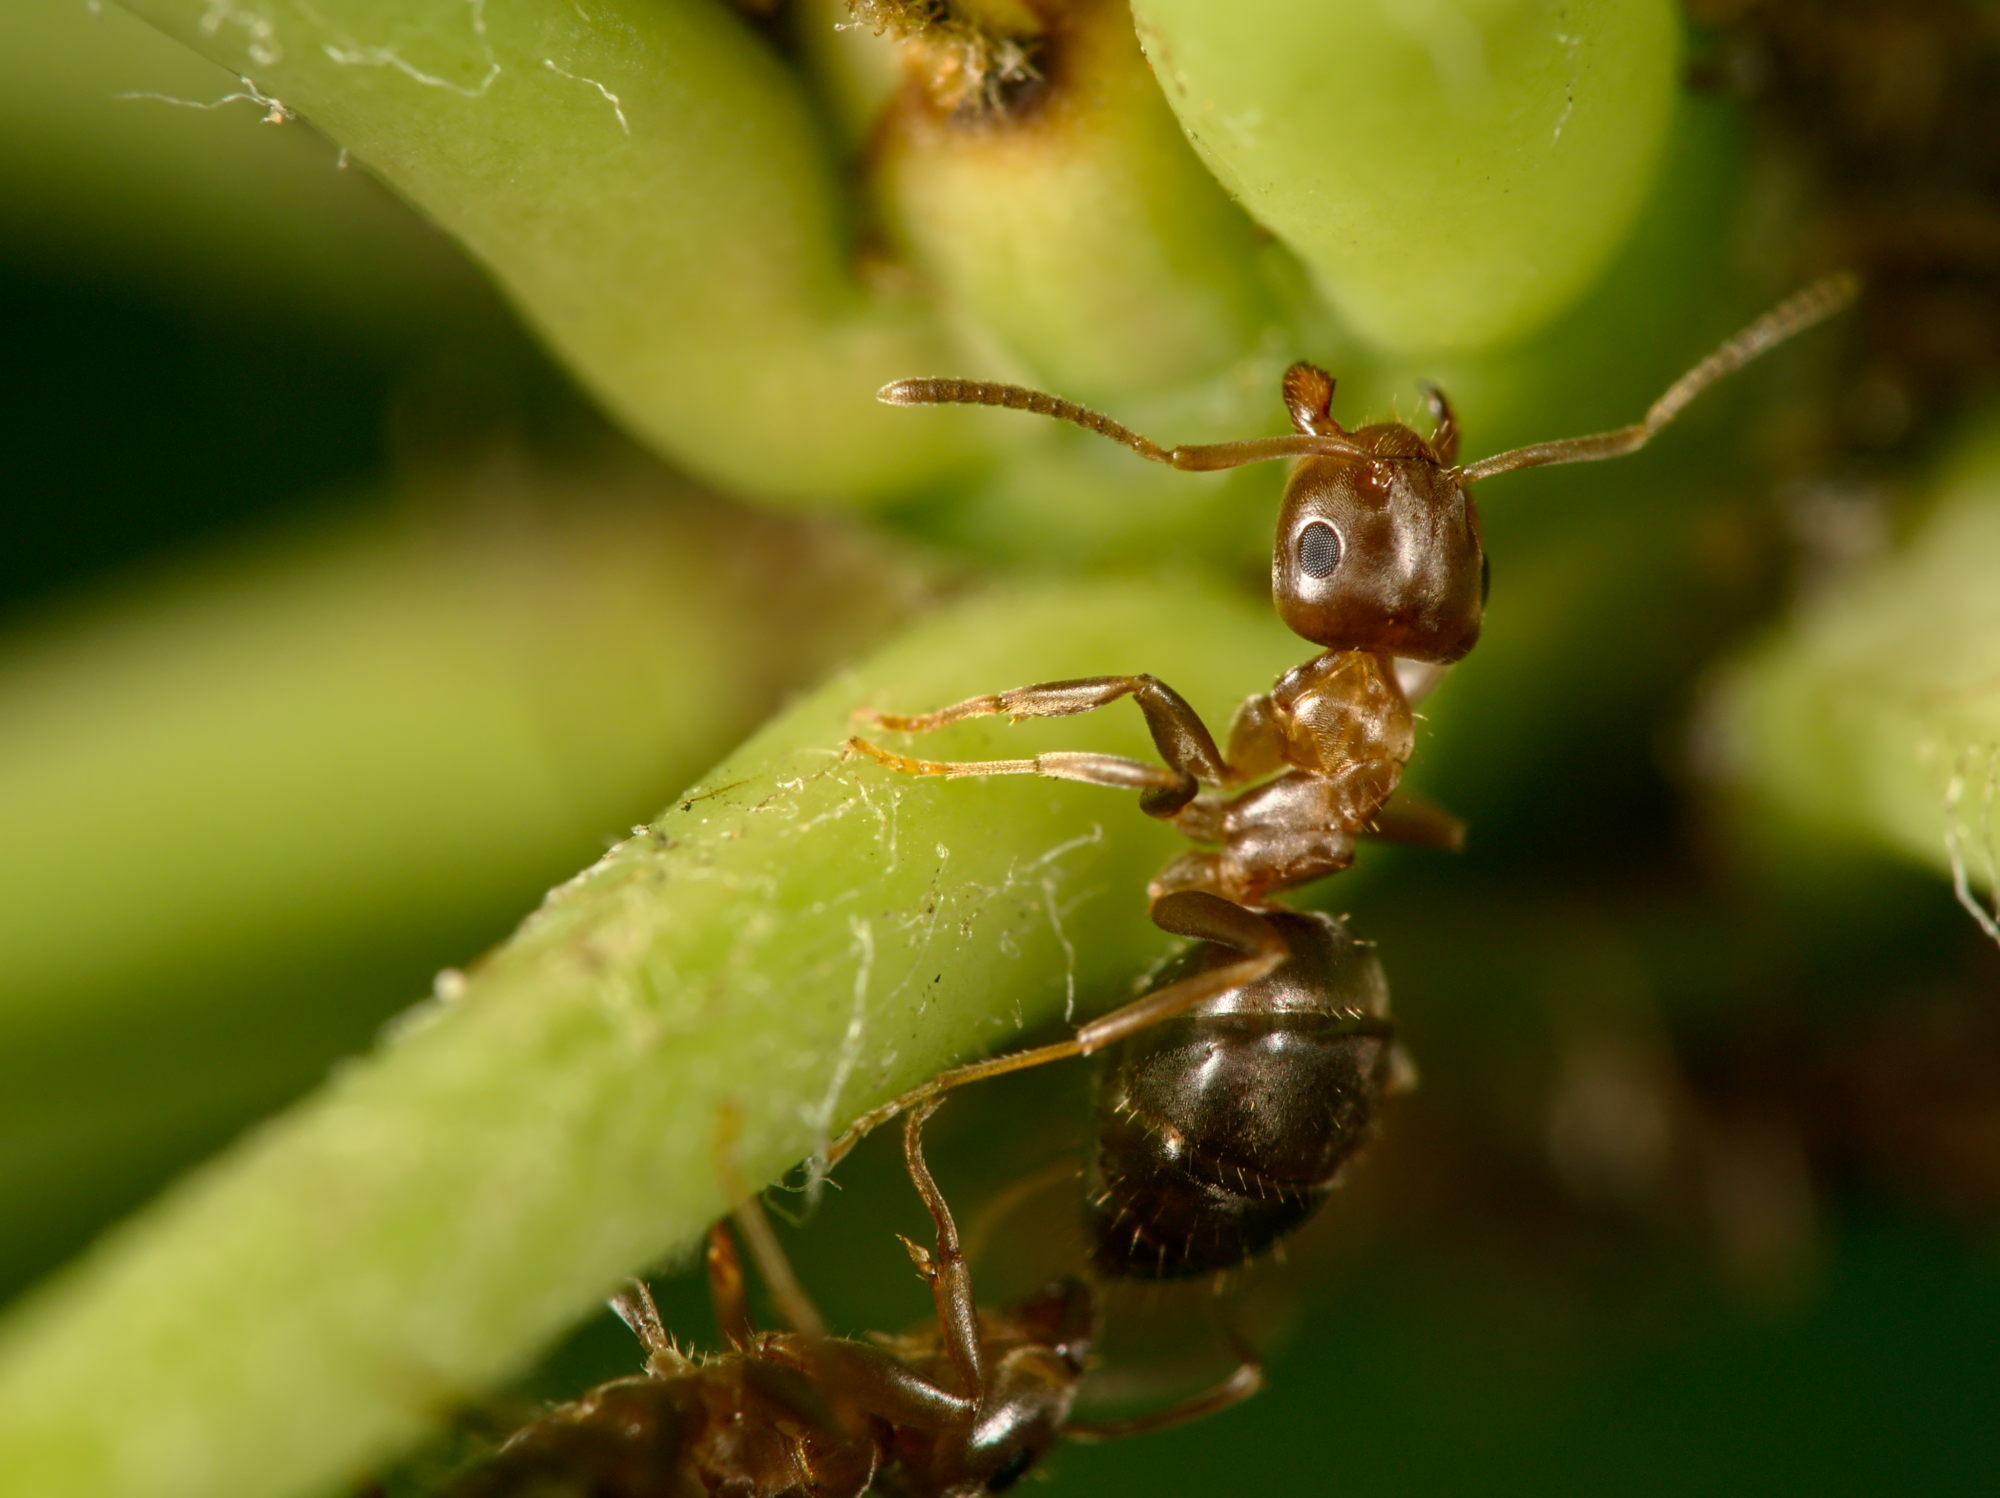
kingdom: Animalia
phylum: Arthropoda
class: Insecta
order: Hymenoptera
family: Formicidae
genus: Lasius
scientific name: Lasius brunneus
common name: Brown ant
